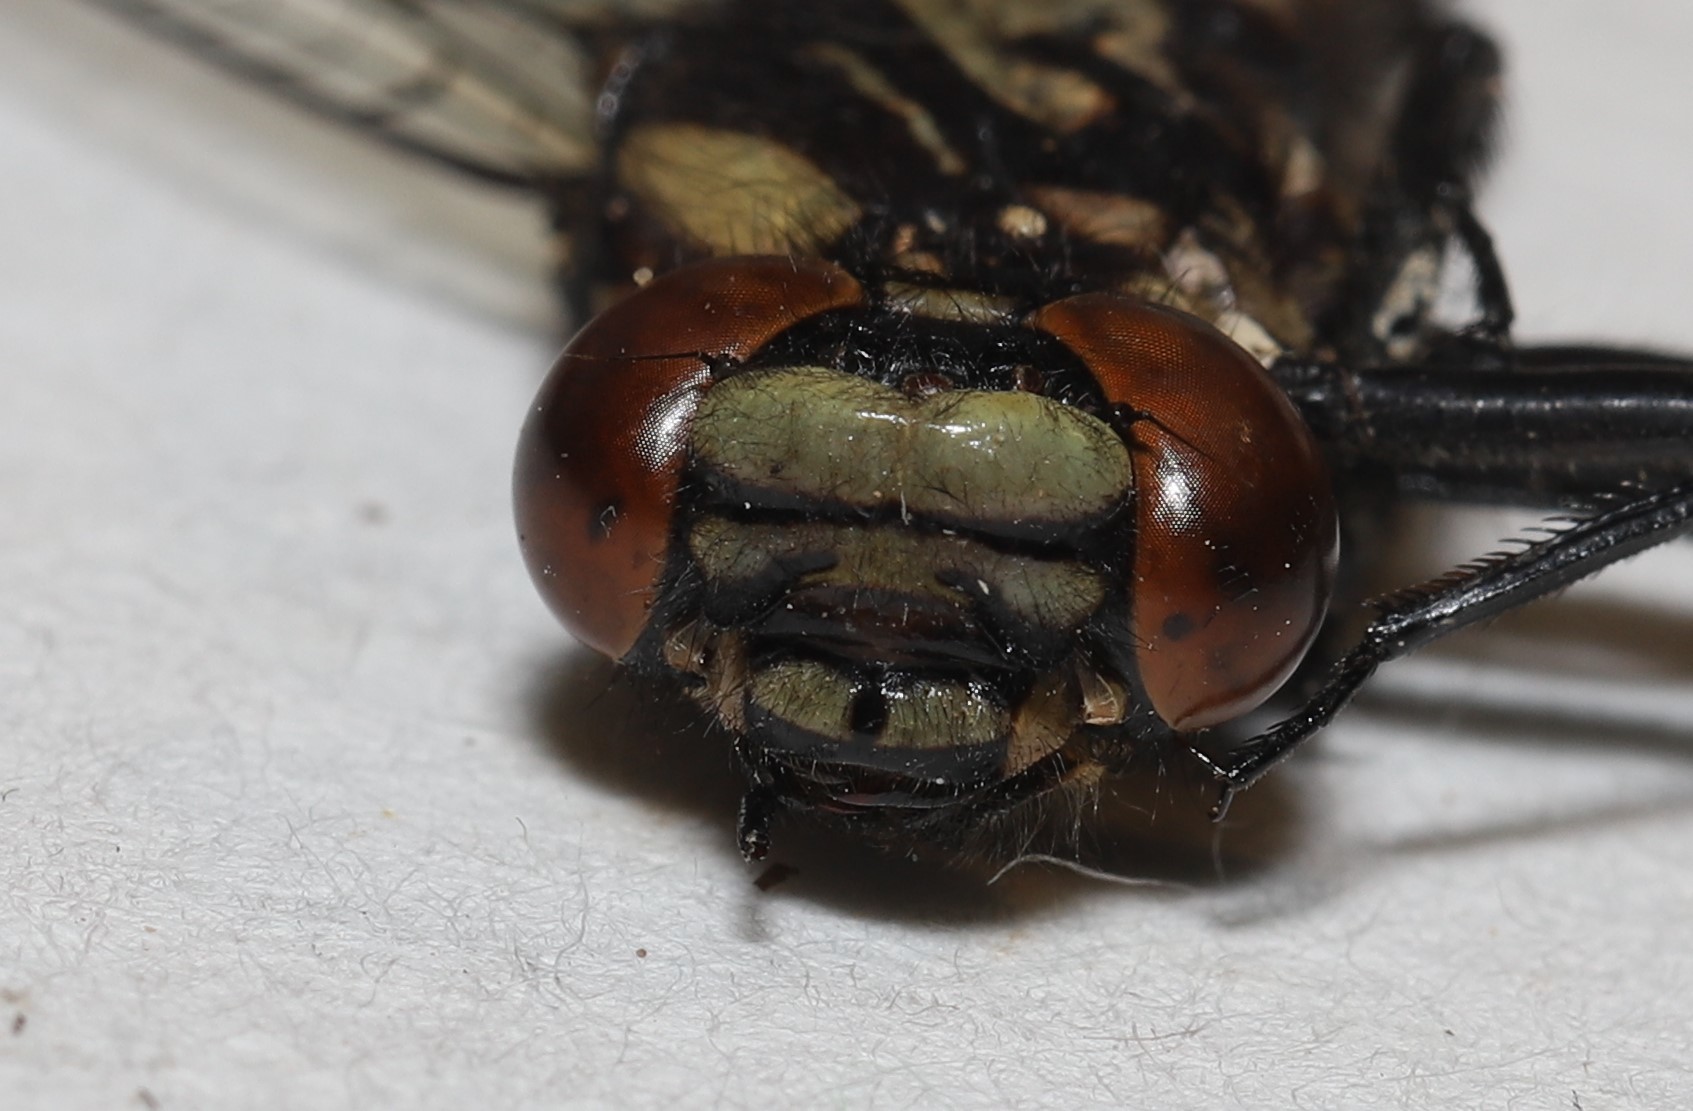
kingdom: Animalia
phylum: Arthropoda
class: Insecta
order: Odonata
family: Gomphidae
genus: Hylogomphus
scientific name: Hylogomphus adelphus
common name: Mustached clubtail
